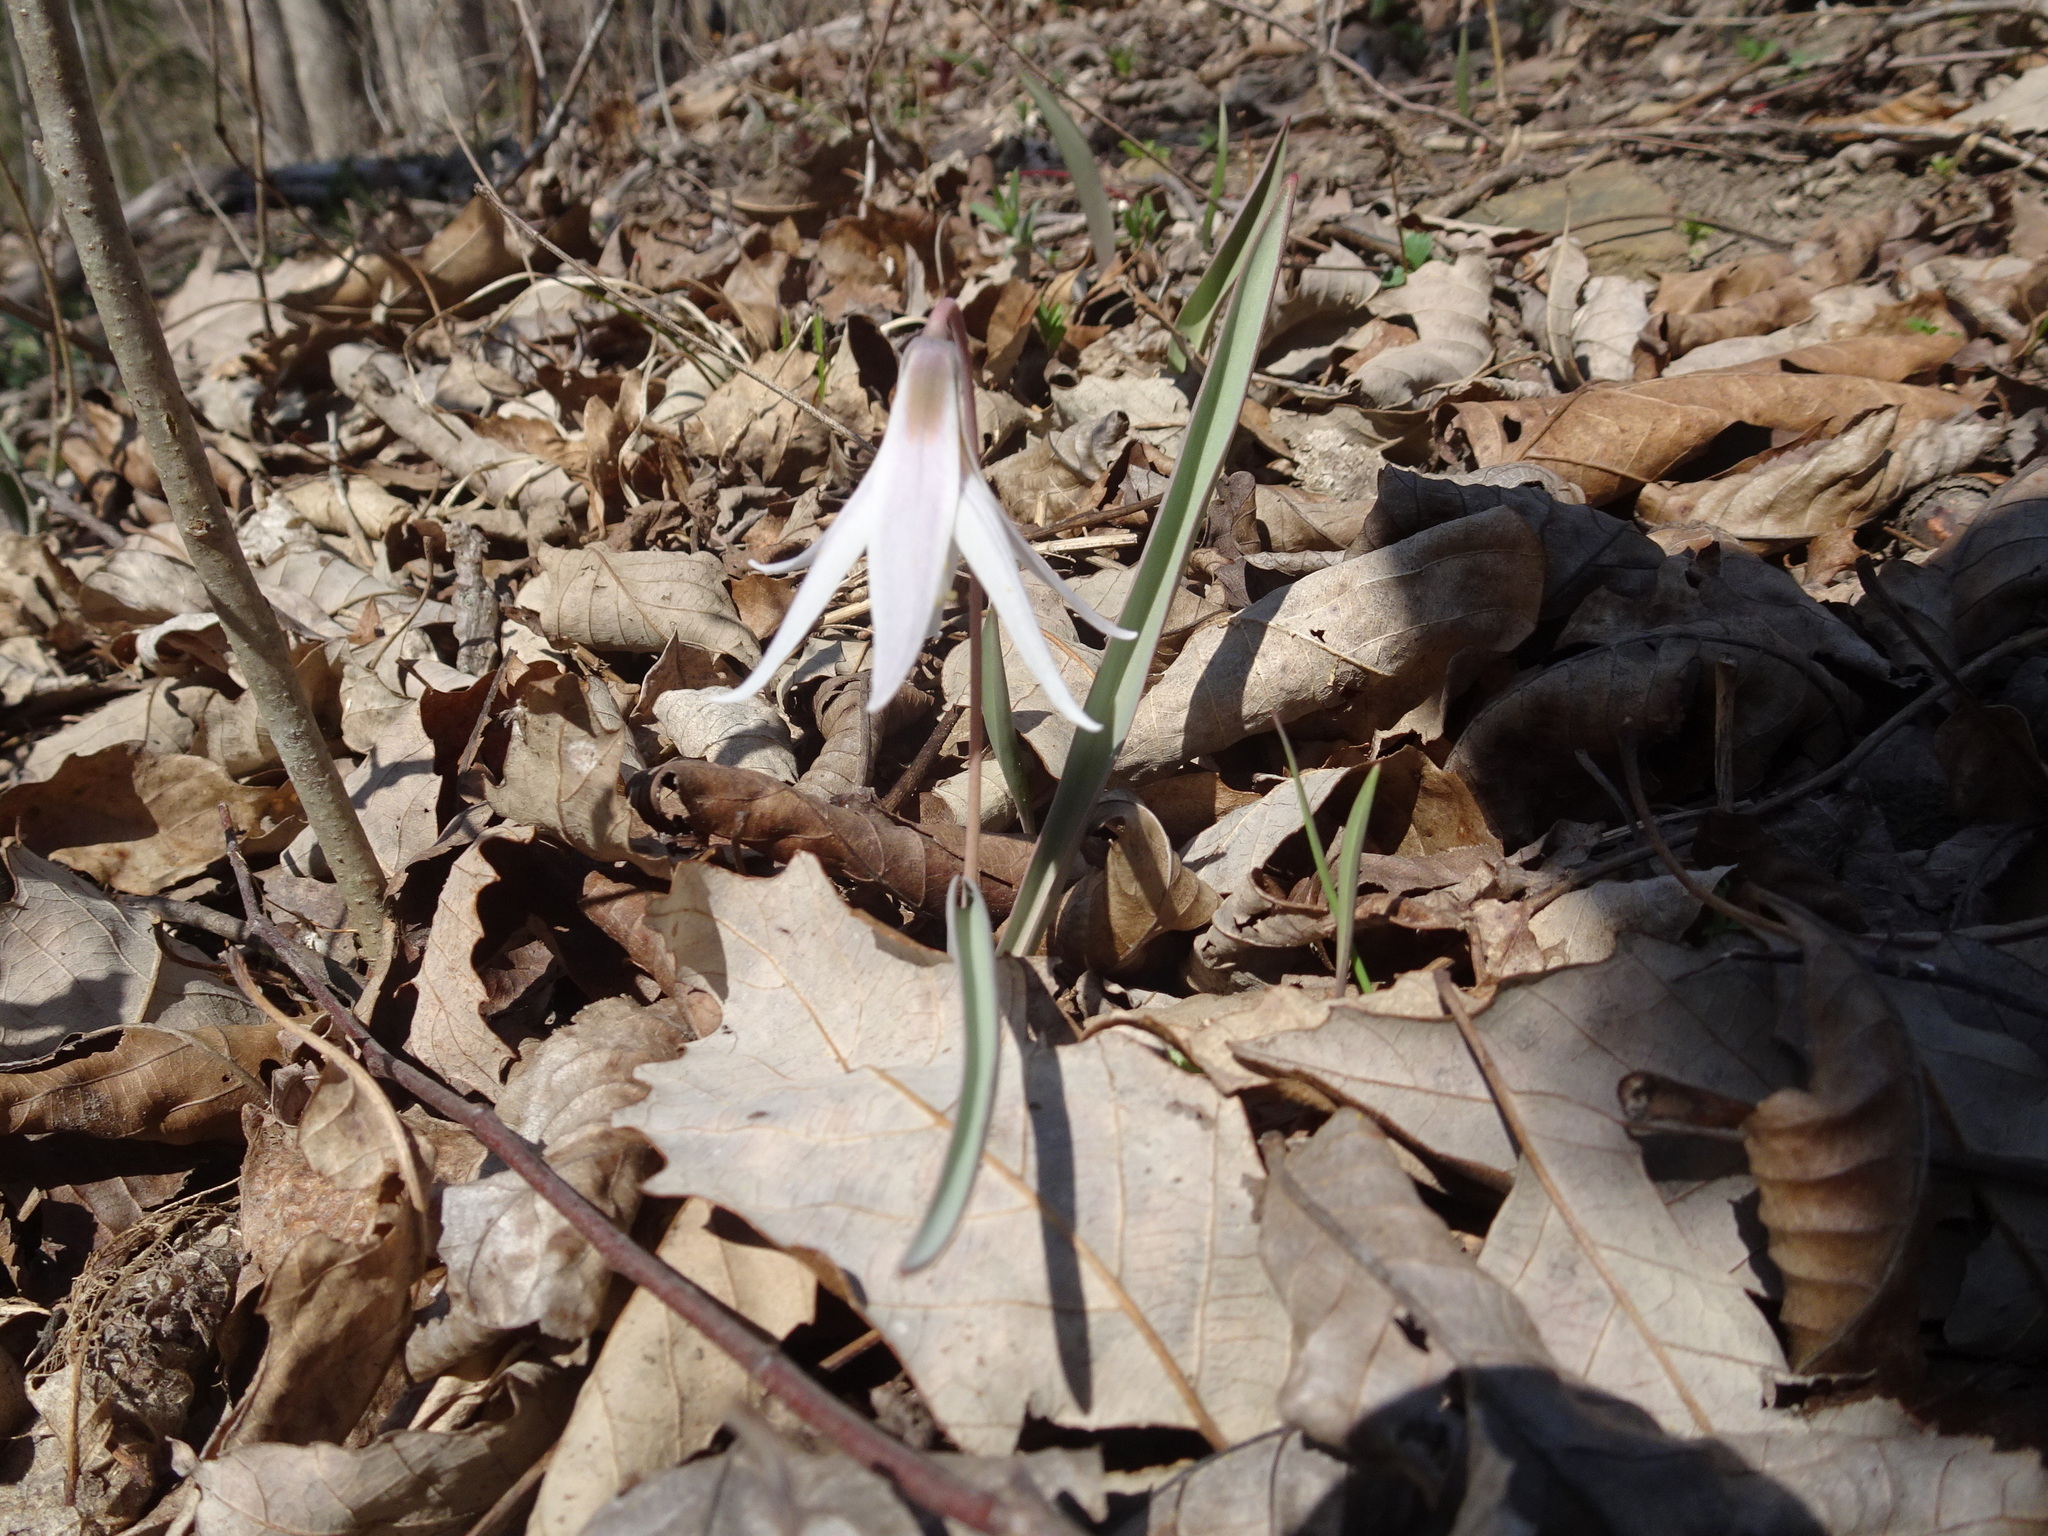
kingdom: Plantae
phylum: Tracheophyta
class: Liliopsida
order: Liliales
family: Liliaceae
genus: Erythronium
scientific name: Erythronium mesochoreum
